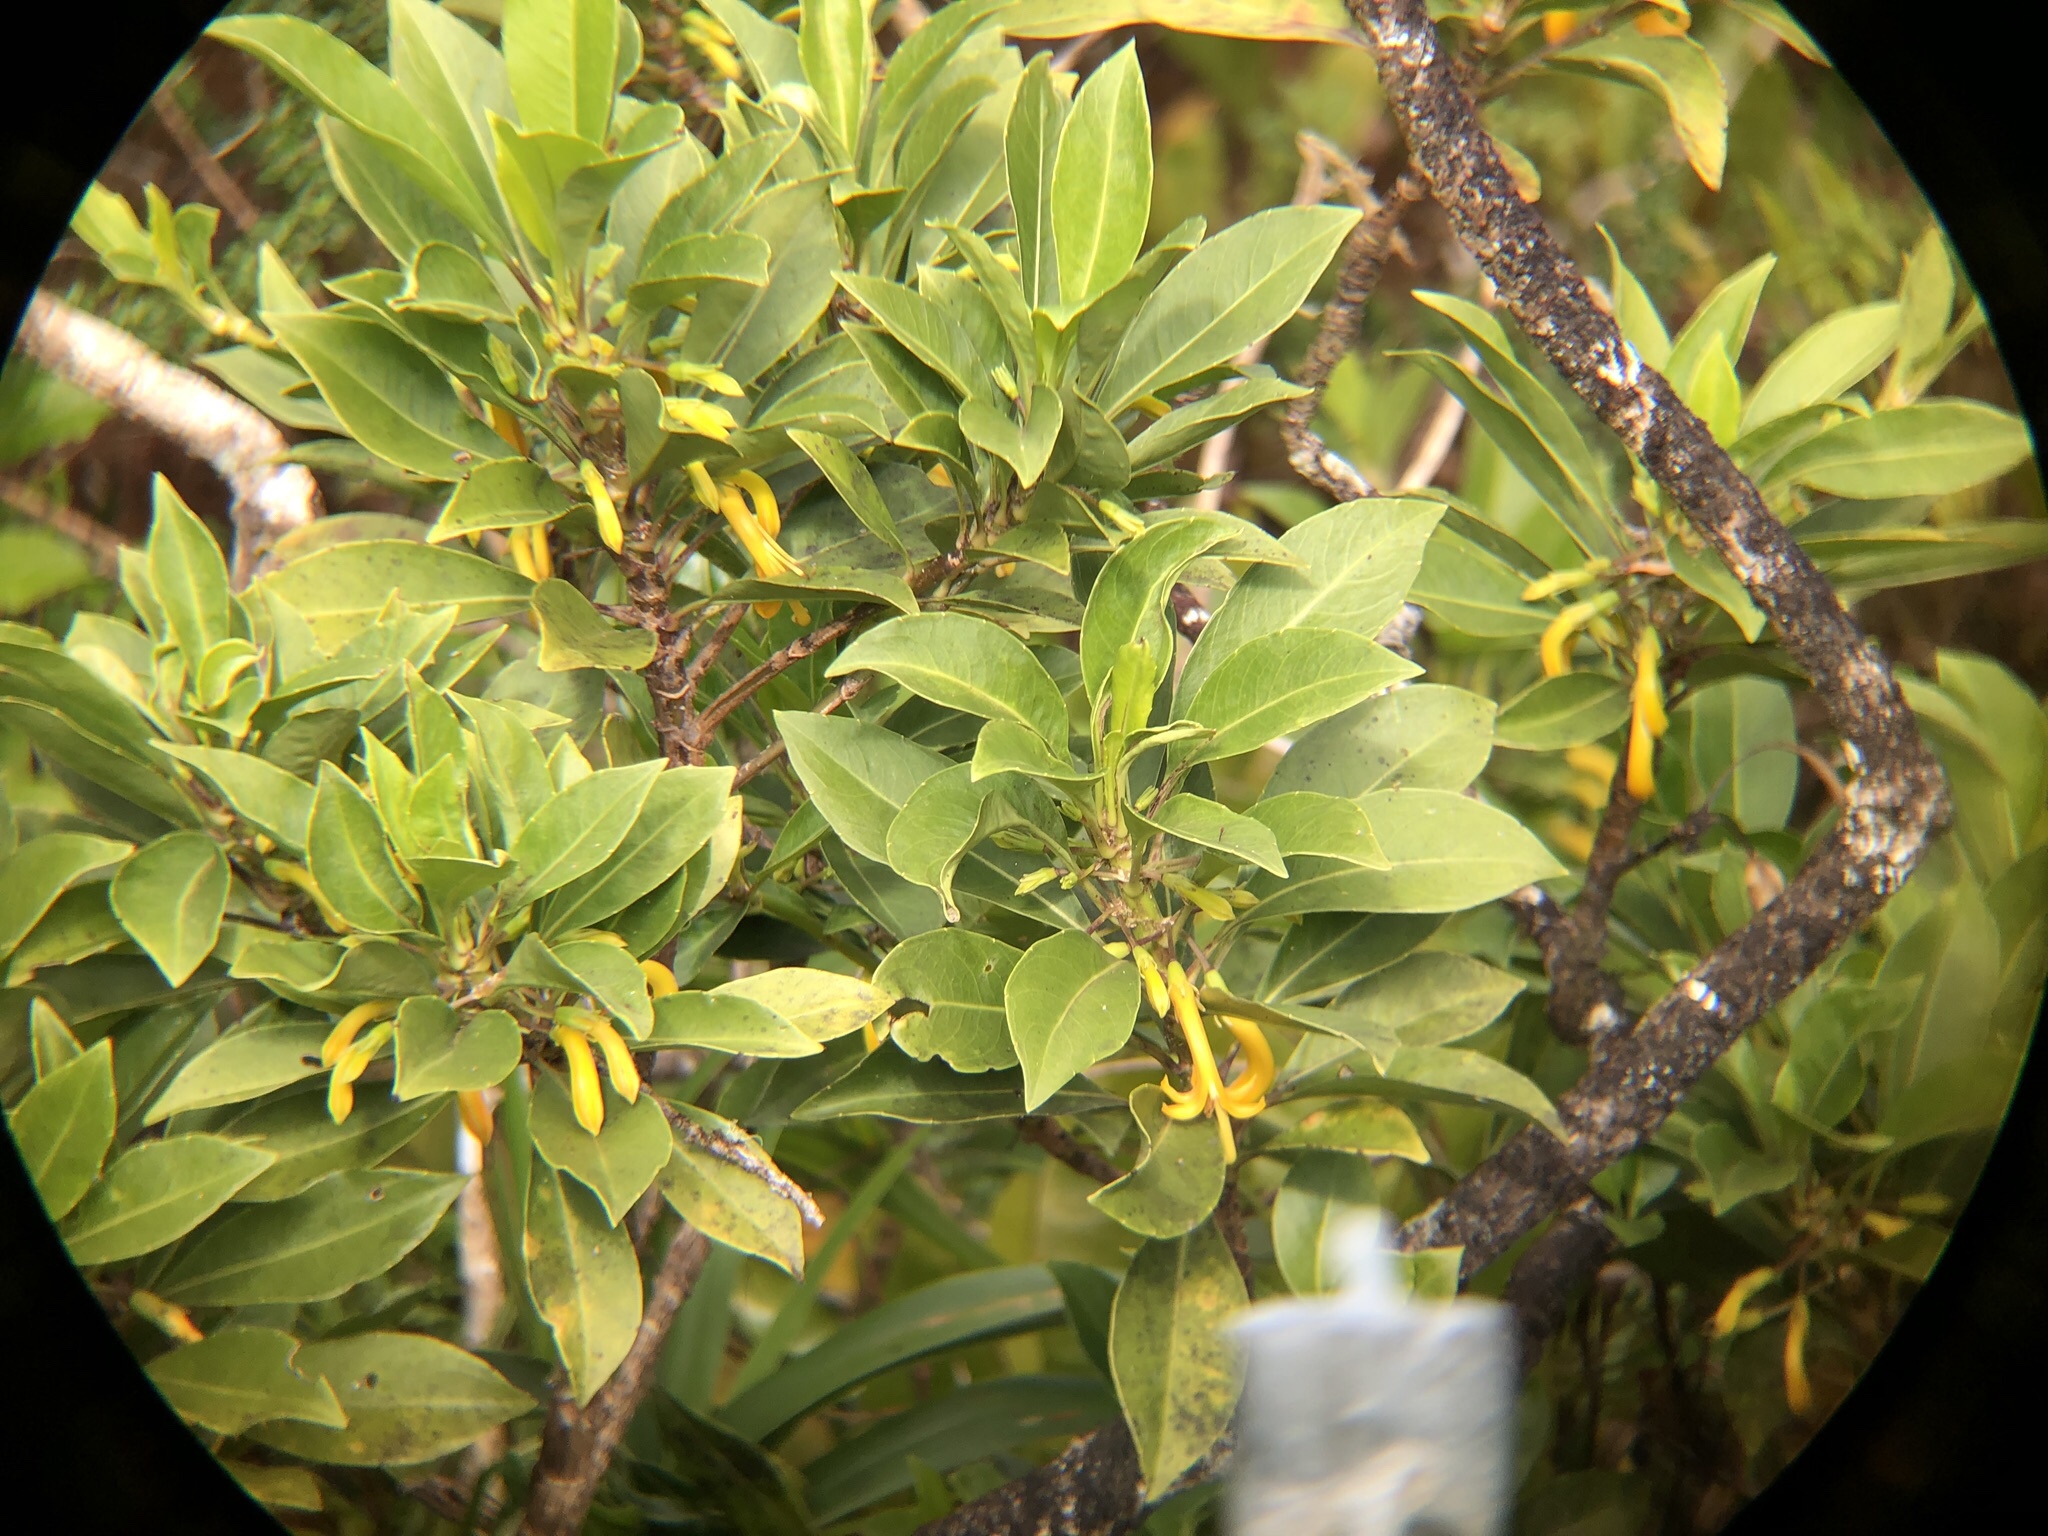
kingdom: Plantae
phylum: Tracheophyta
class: Magnoliopsida
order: Asterales
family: Goodeniaceae
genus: Scaevola
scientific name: Scaevola glabra
